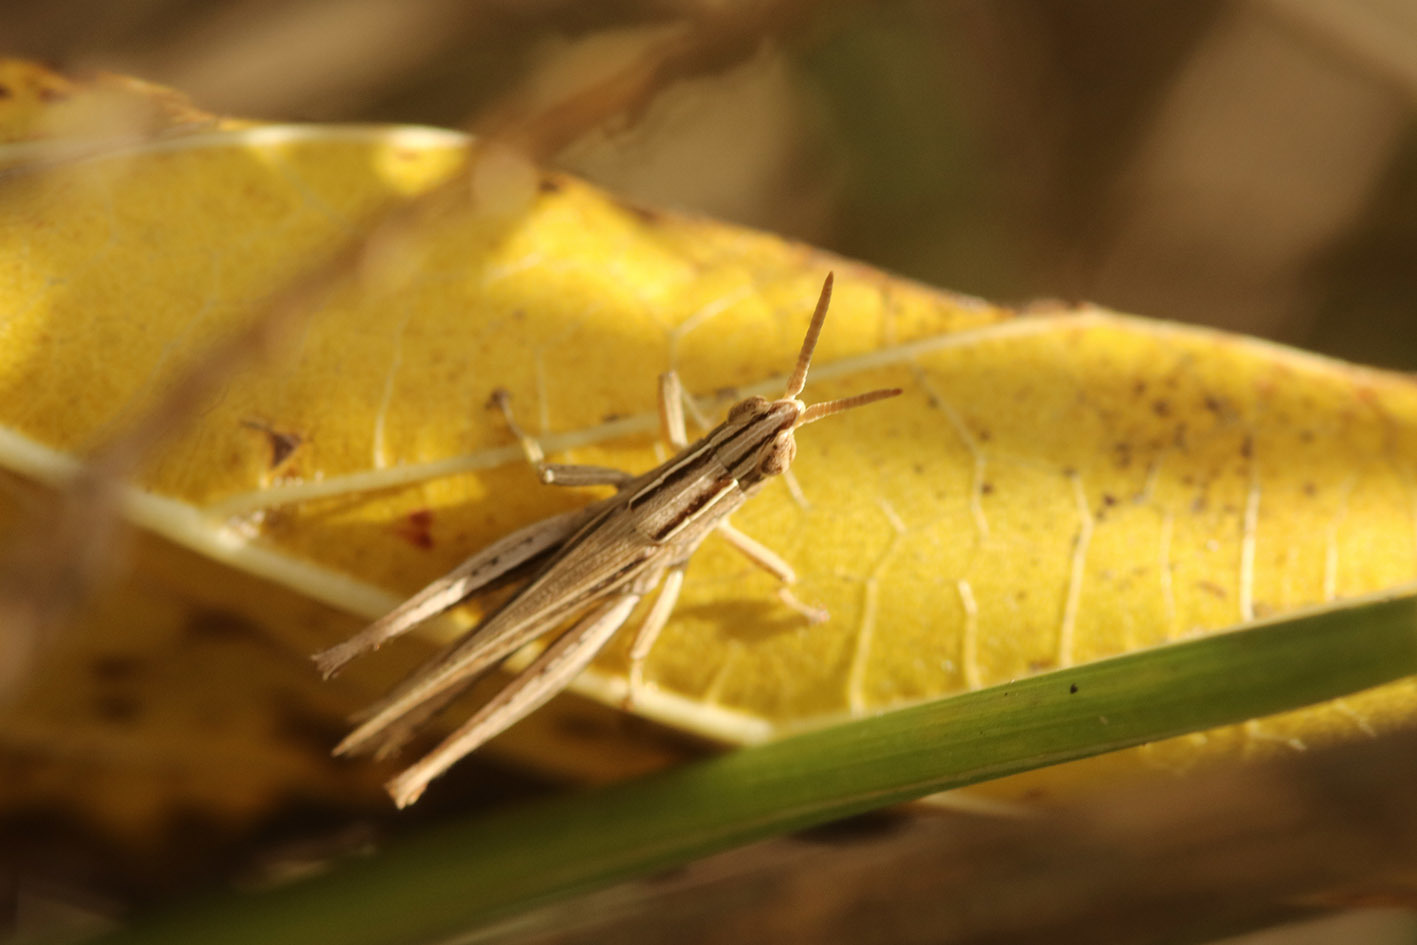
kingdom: Animalia
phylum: Arthropoda
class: Insecta
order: Orthoptera
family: Acrididae
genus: Laplatacris
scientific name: Laplatacris dispar
